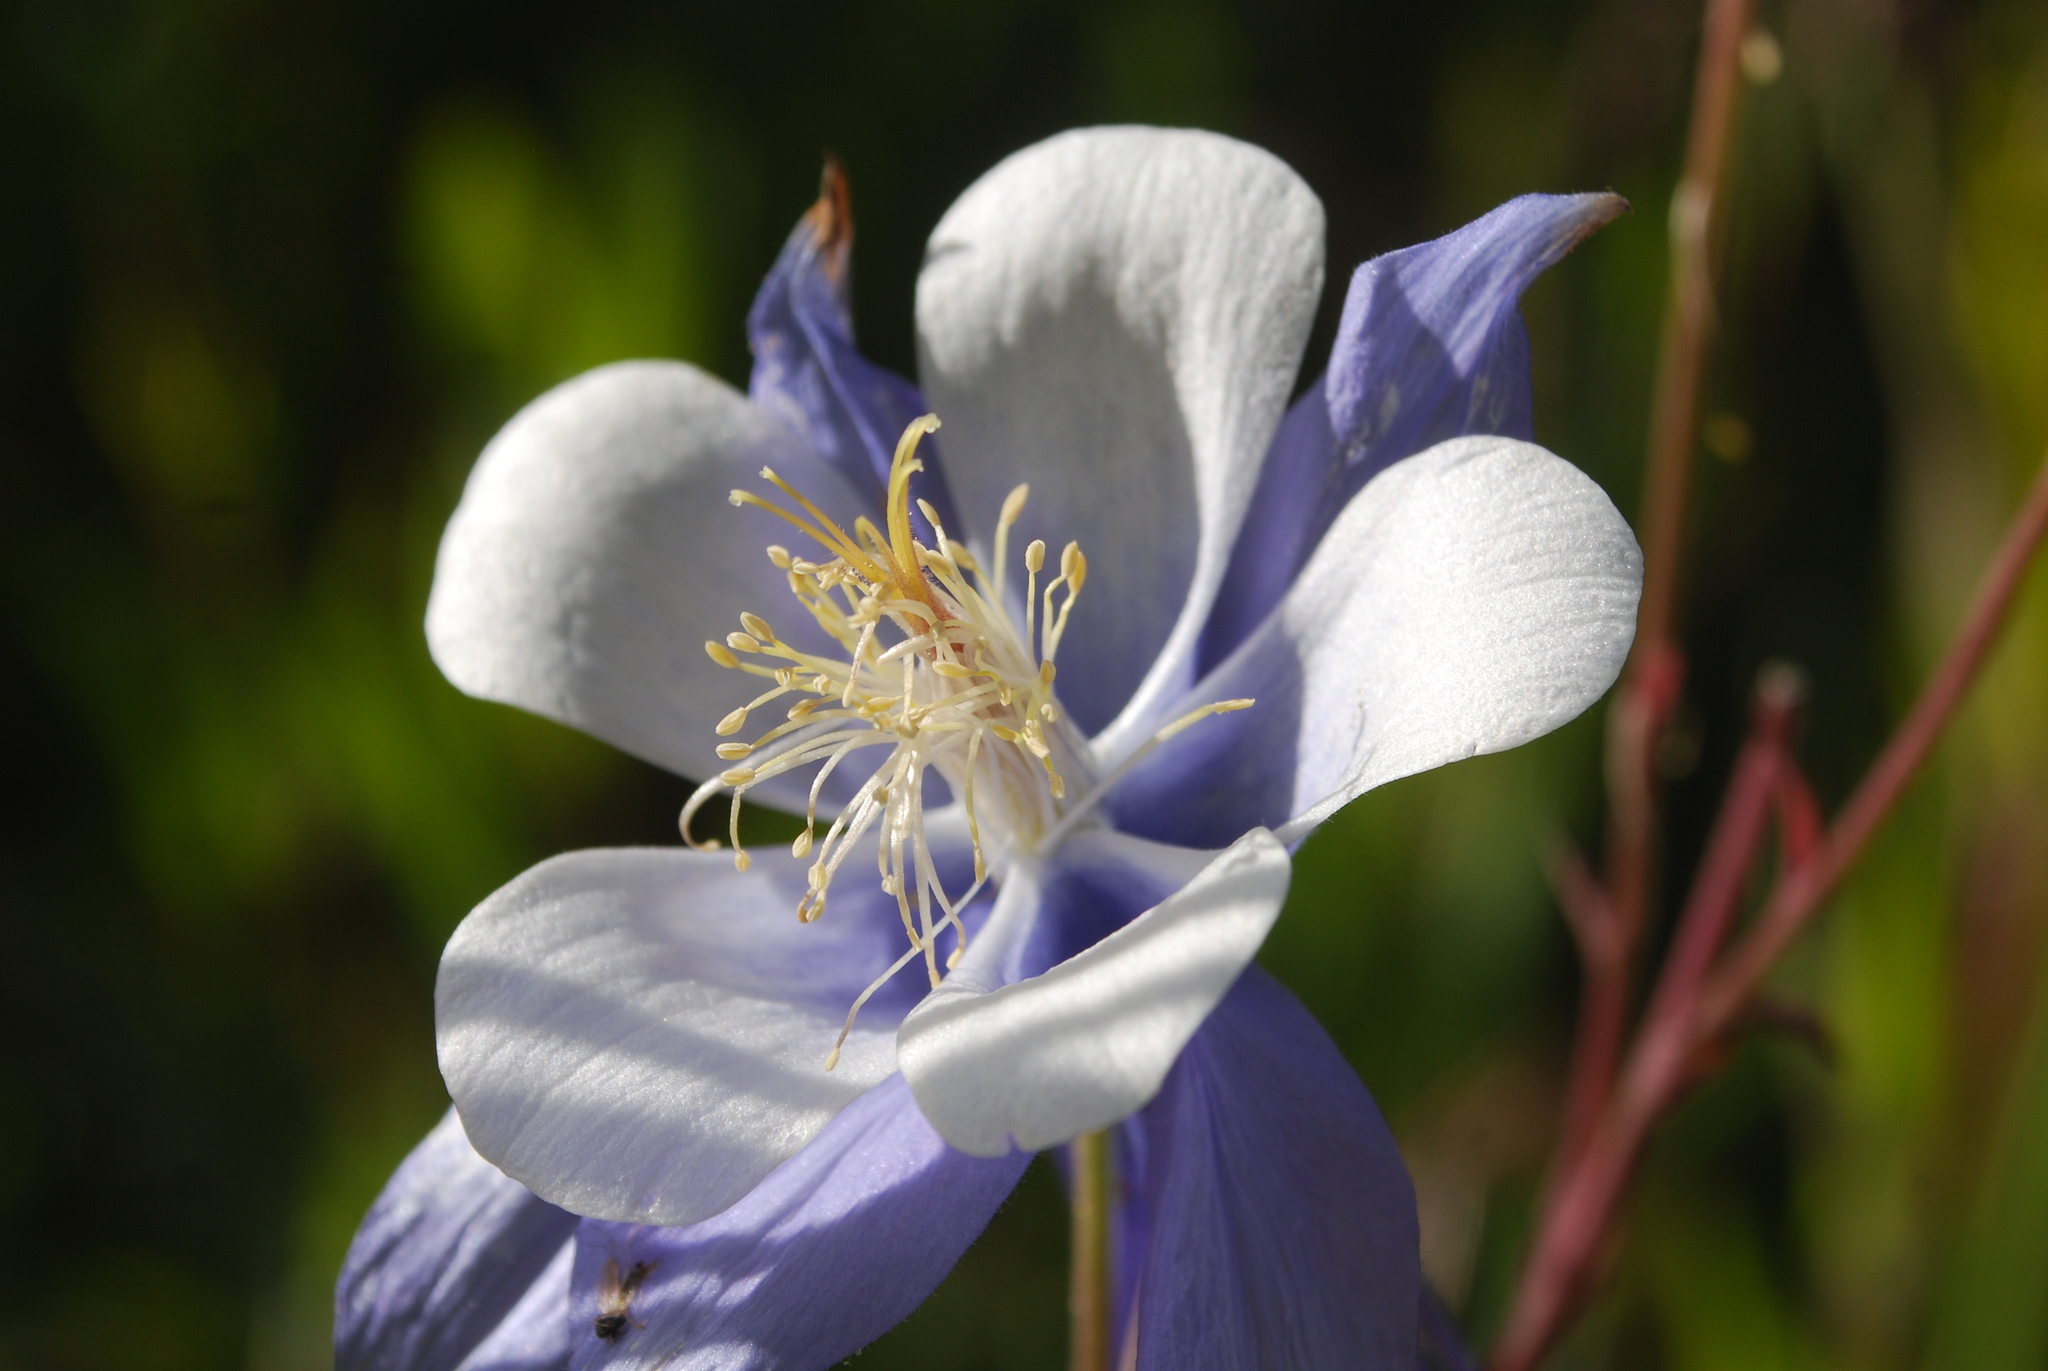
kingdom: Plantae
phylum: Tracheophyta
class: Magnoliopsida
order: Ranunculales
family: Ranunculaceae
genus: Aquilegia
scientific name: Aquilegia coerulea
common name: Rocky mountain columbine
